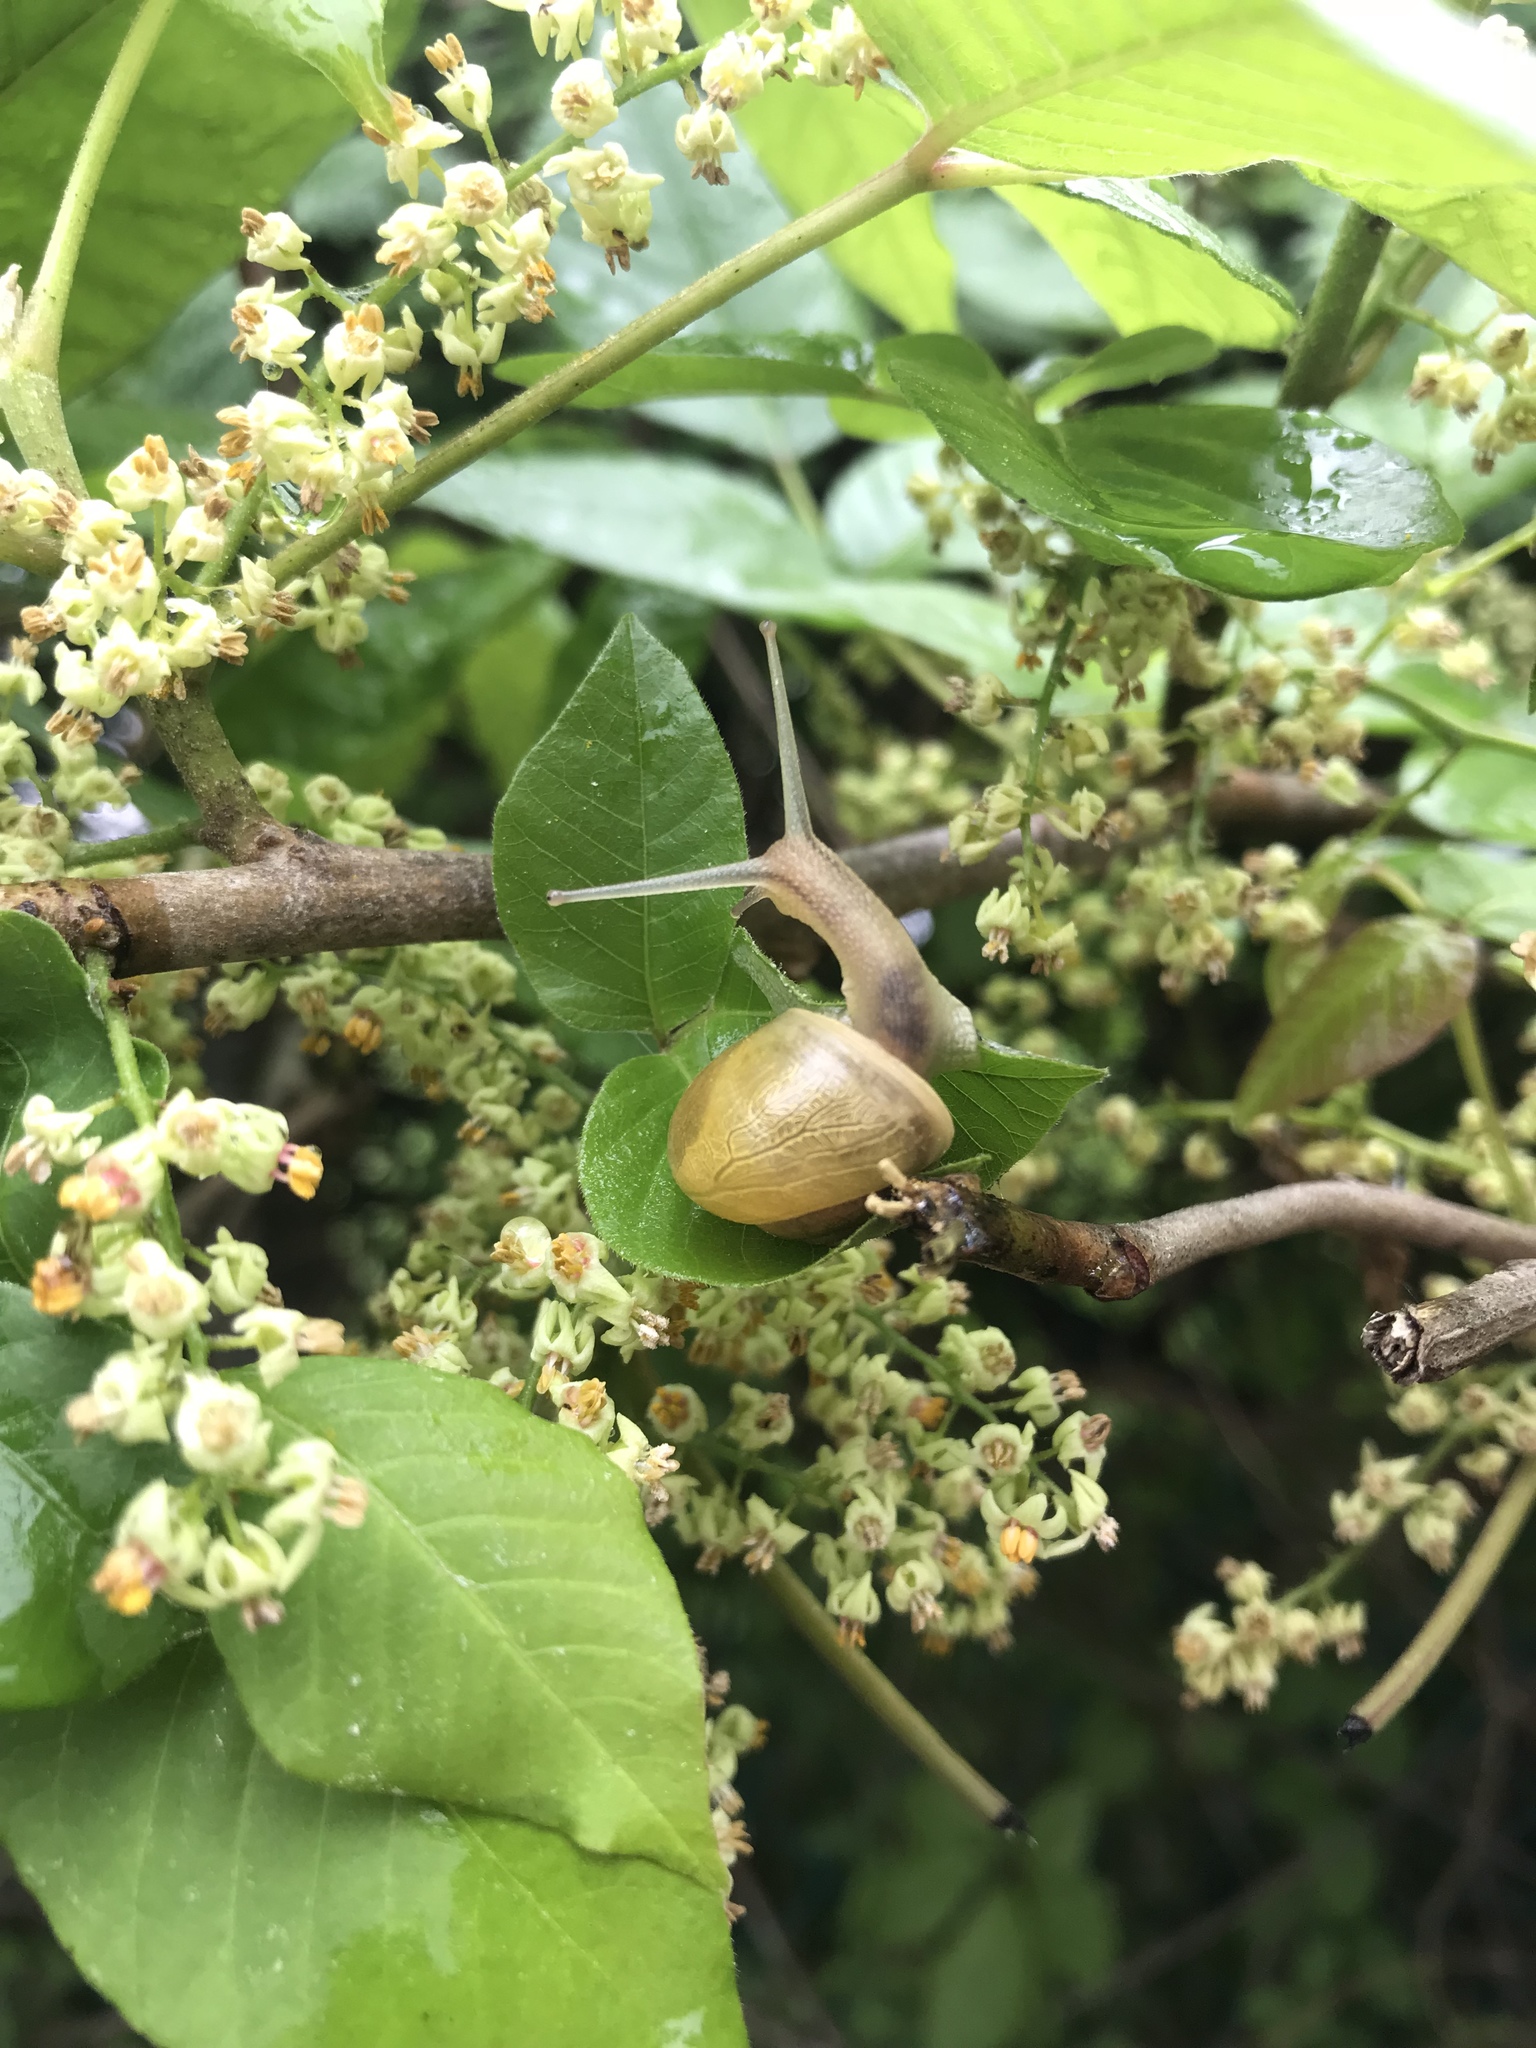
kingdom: Animalia
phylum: Mollusca
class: Gastropoda
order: Stylommatophora
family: Helicidae
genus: Cepaea
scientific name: Cepaea
